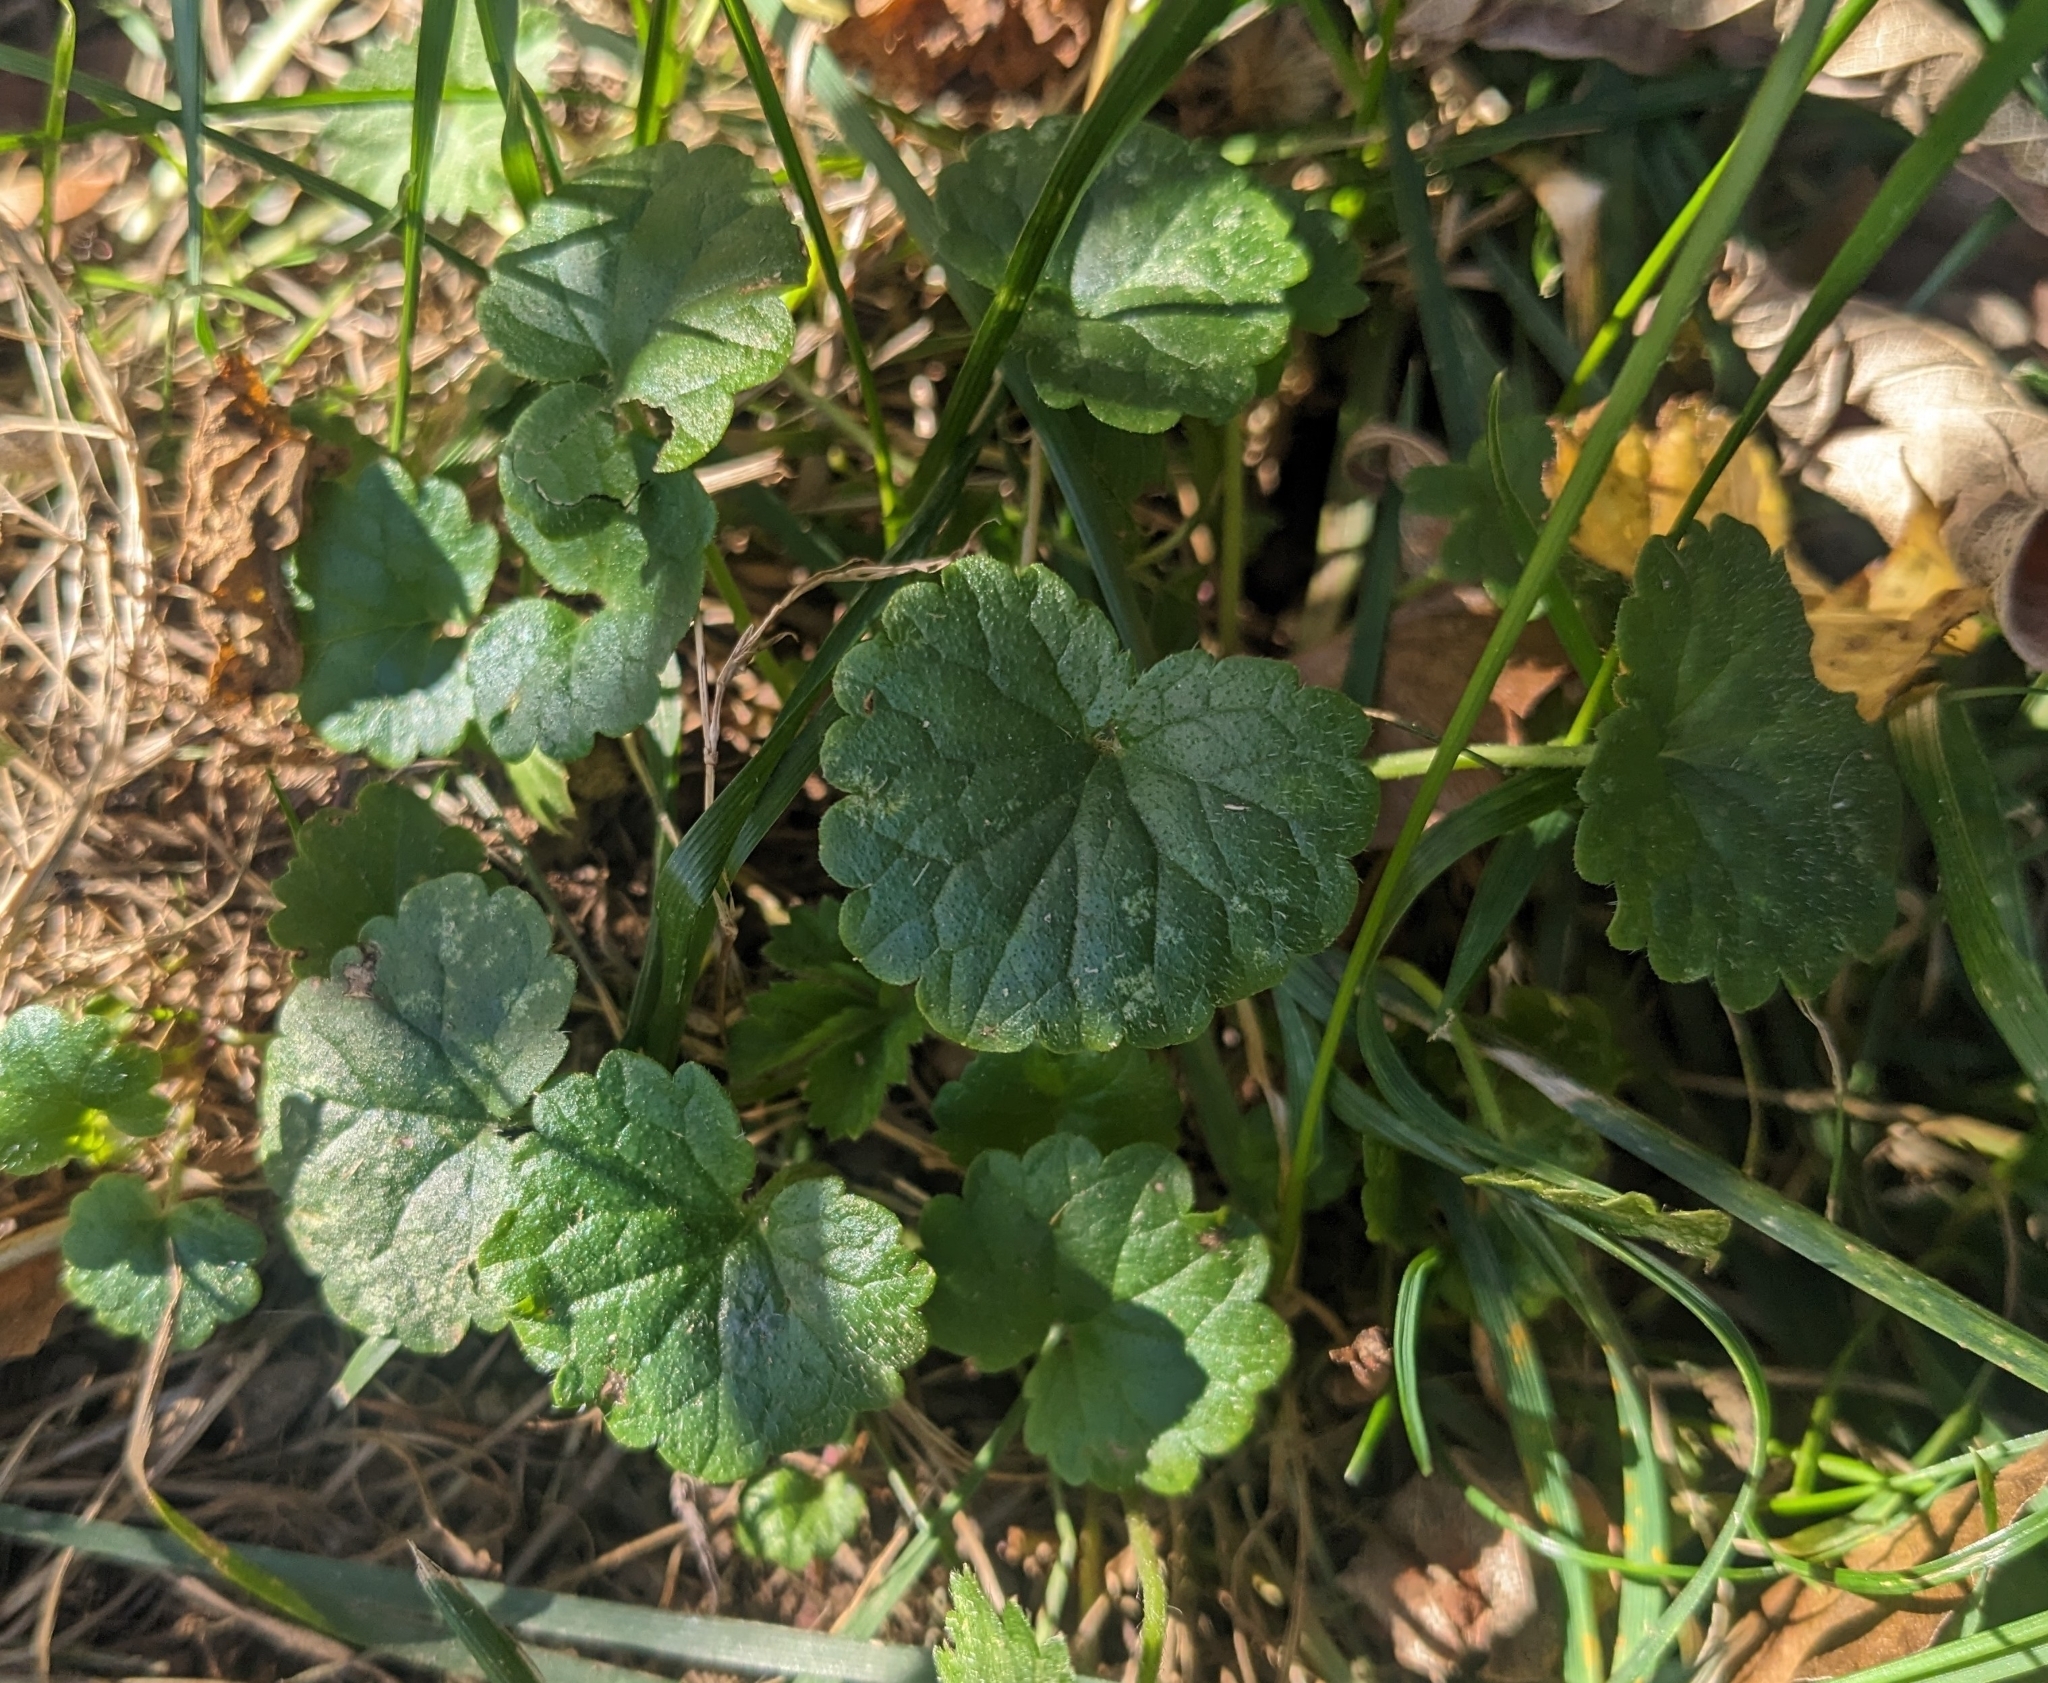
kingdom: Plantae
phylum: Tracheophyta
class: Magnoliopsida
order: Lamiales
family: Lamiaceae
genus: Glechoma
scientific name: Glechoma hederacea
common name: Ground ivy
